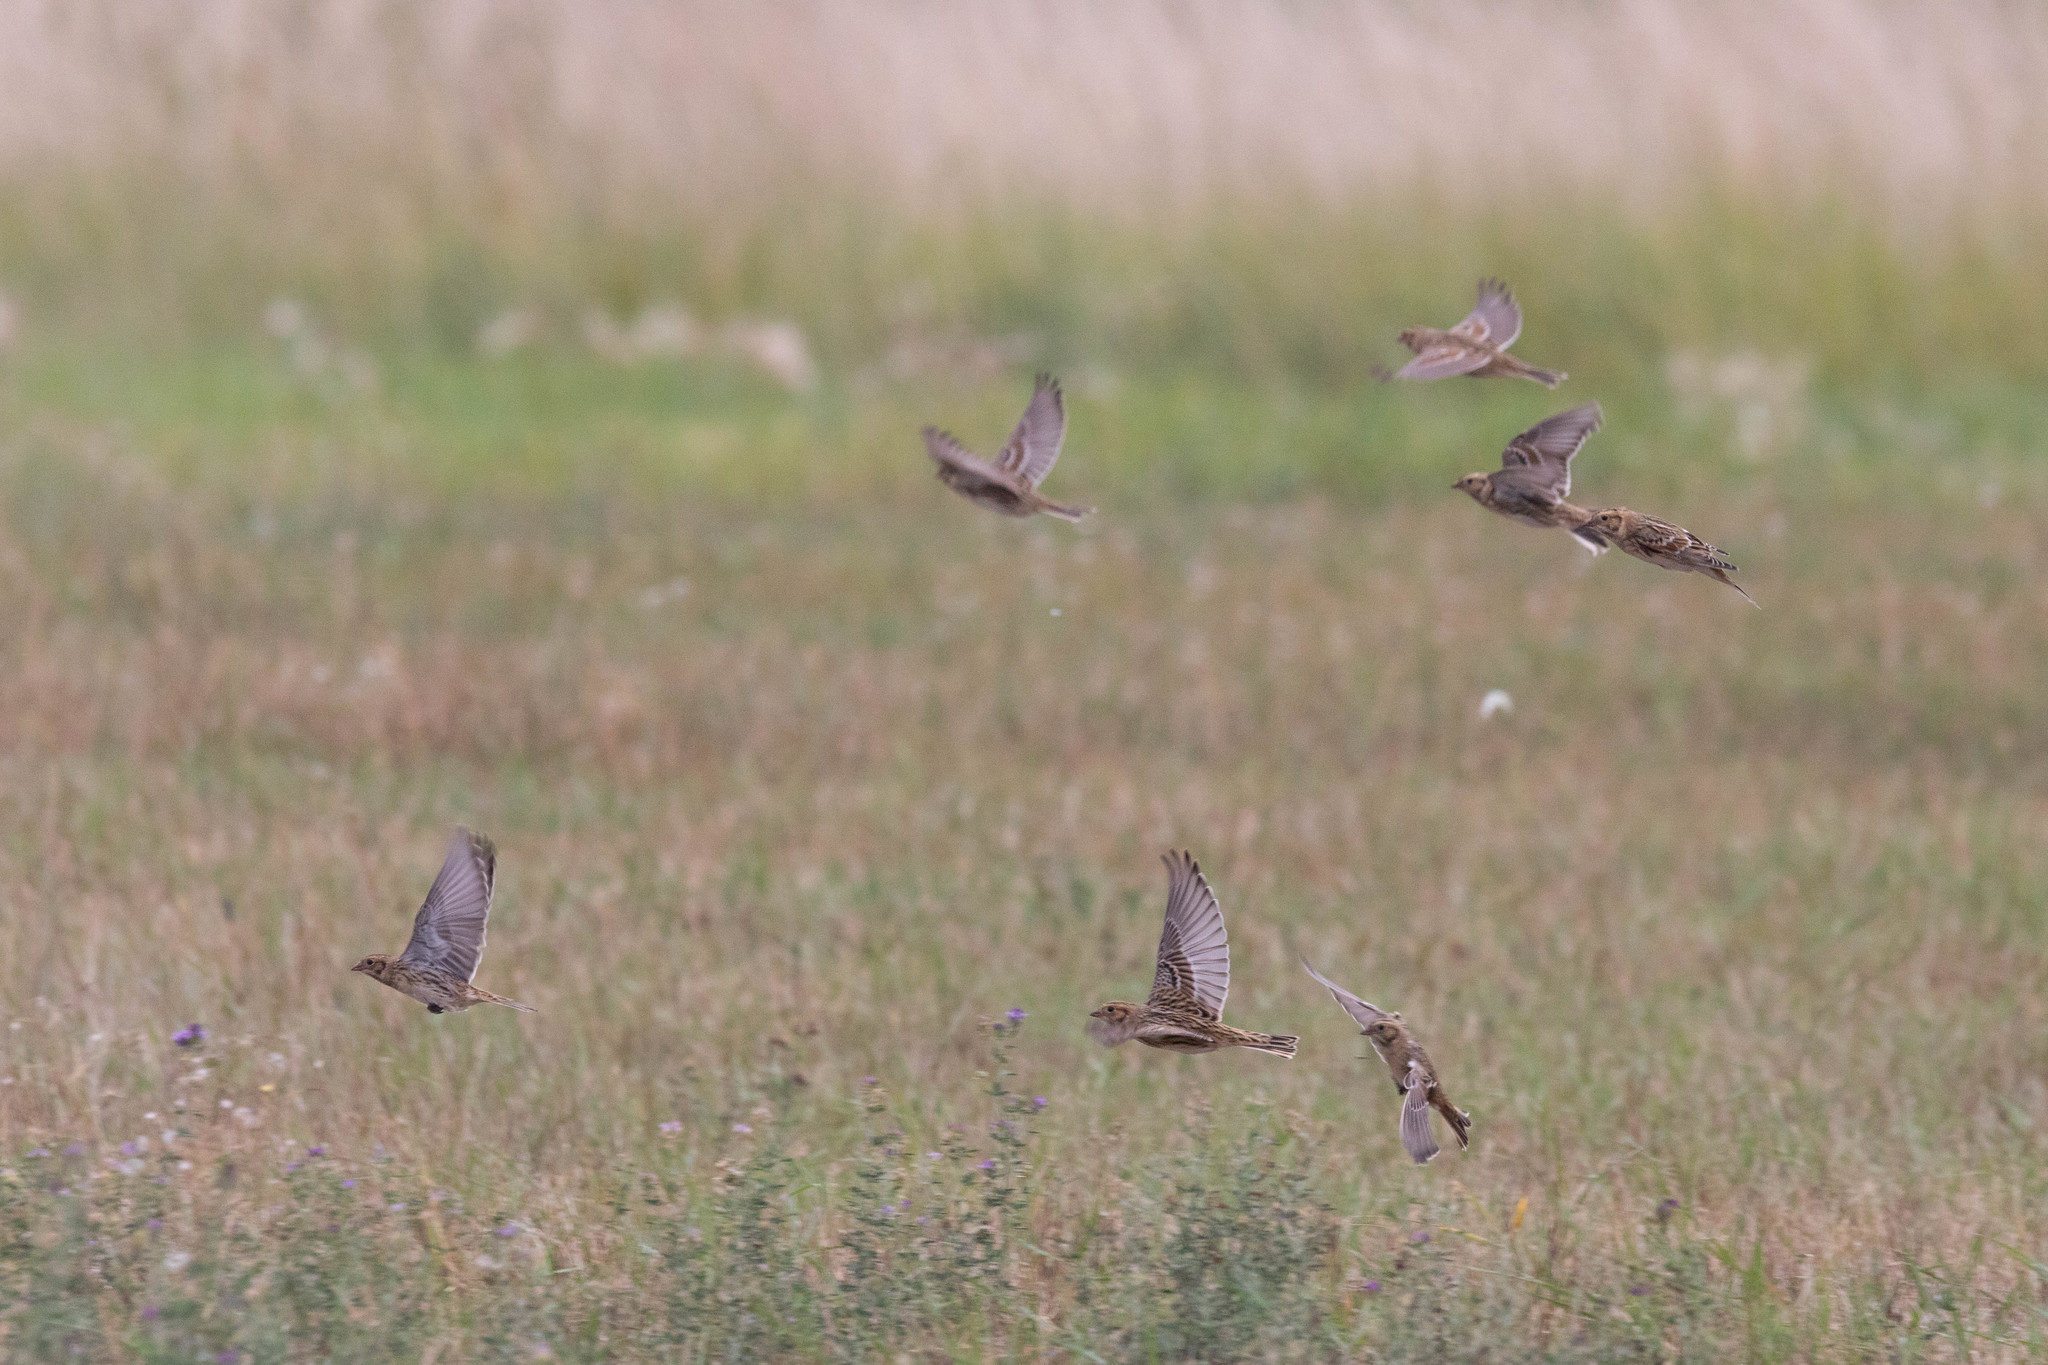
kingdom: Animalia
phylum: Chordata
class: Aves
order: Passeriformes
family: Calcariidae
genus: Calcarius
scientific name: Calcarius lapponicus
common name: Lapland longspur
